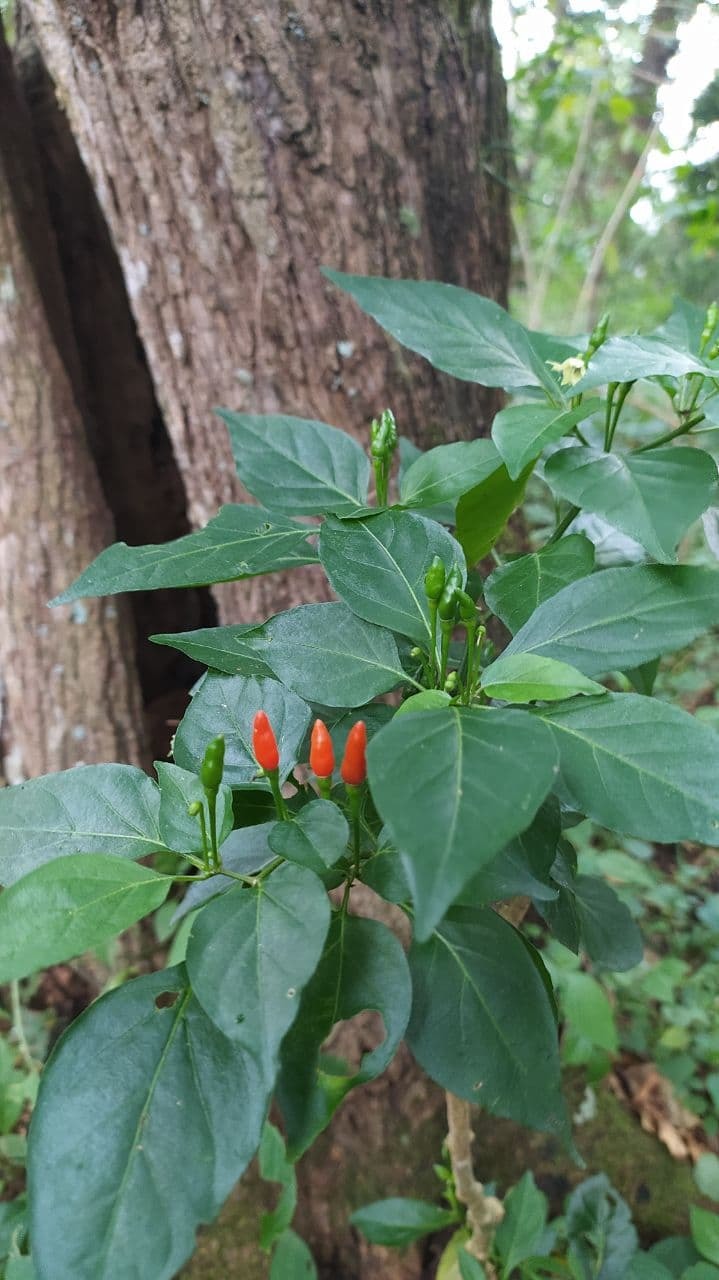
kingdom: Plantae
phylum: Tracheophyta
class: Magnoliopsida
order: Solanales
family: Solanaceae
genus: Capsicum
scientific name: Capsicum frutescens
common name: Bird pepper
